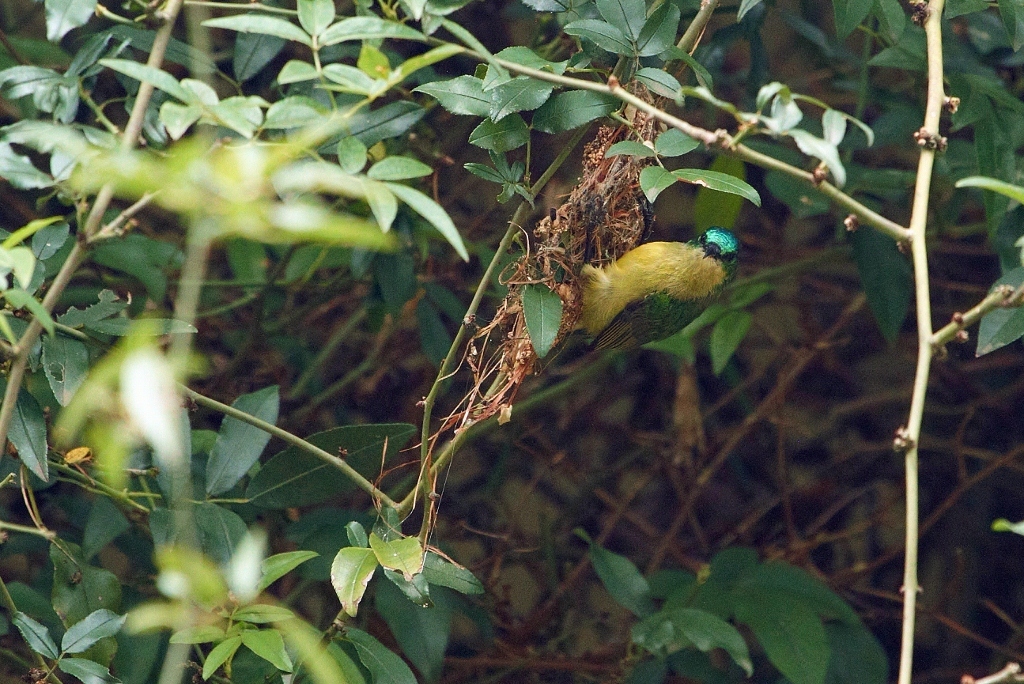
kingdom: Animalia
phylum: Chordata
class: Aves
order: Passeriformes
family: Nectariniidae
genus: Hedydipna
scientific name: Hedydipna collaris
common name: Collared sunbird
